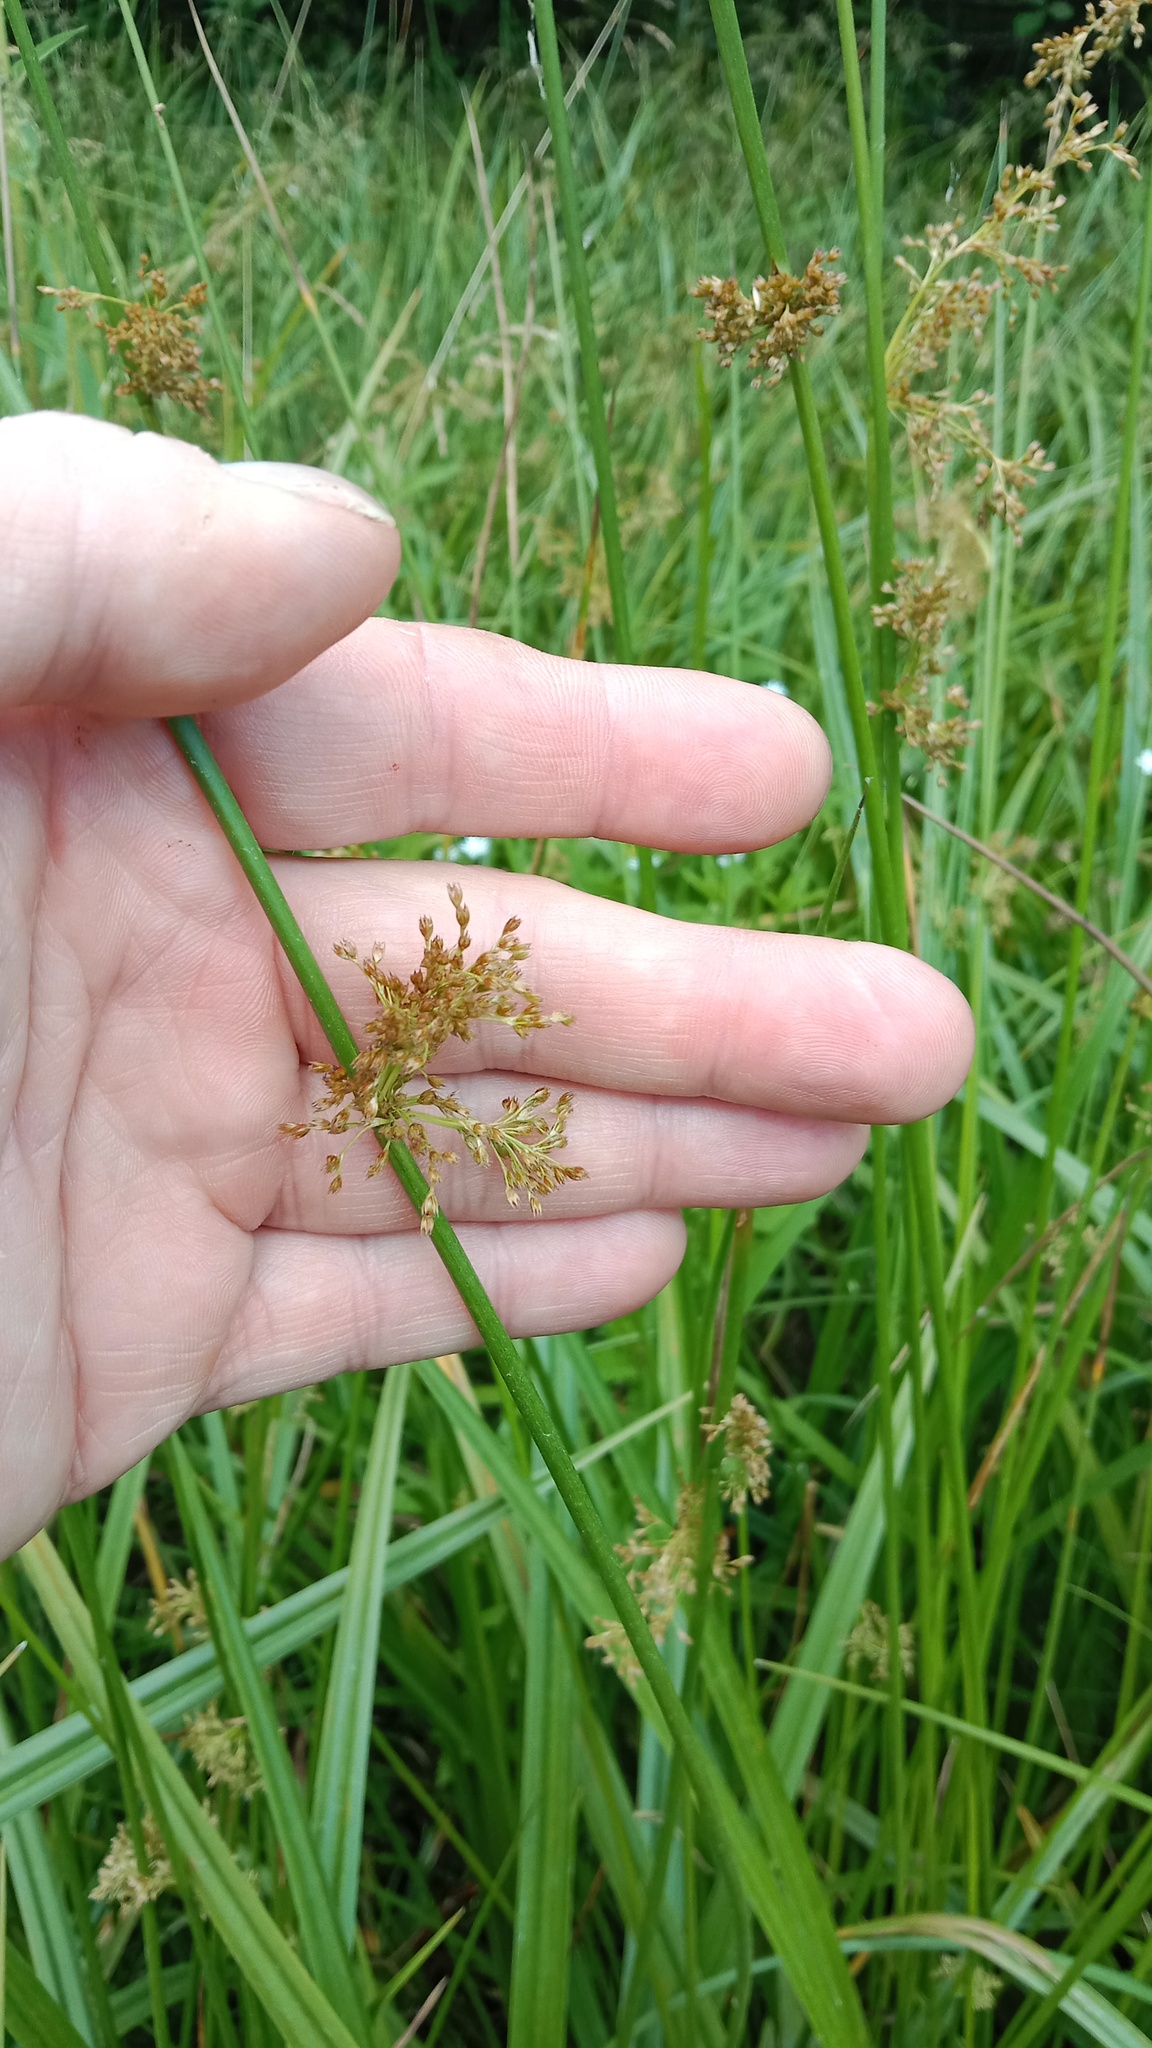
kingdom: Plantae
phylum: Tracheophyta
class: Liliopsida
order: Poales
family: Juncaceae
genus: Juncus
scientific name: Juncus effusus
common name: Soft rush
